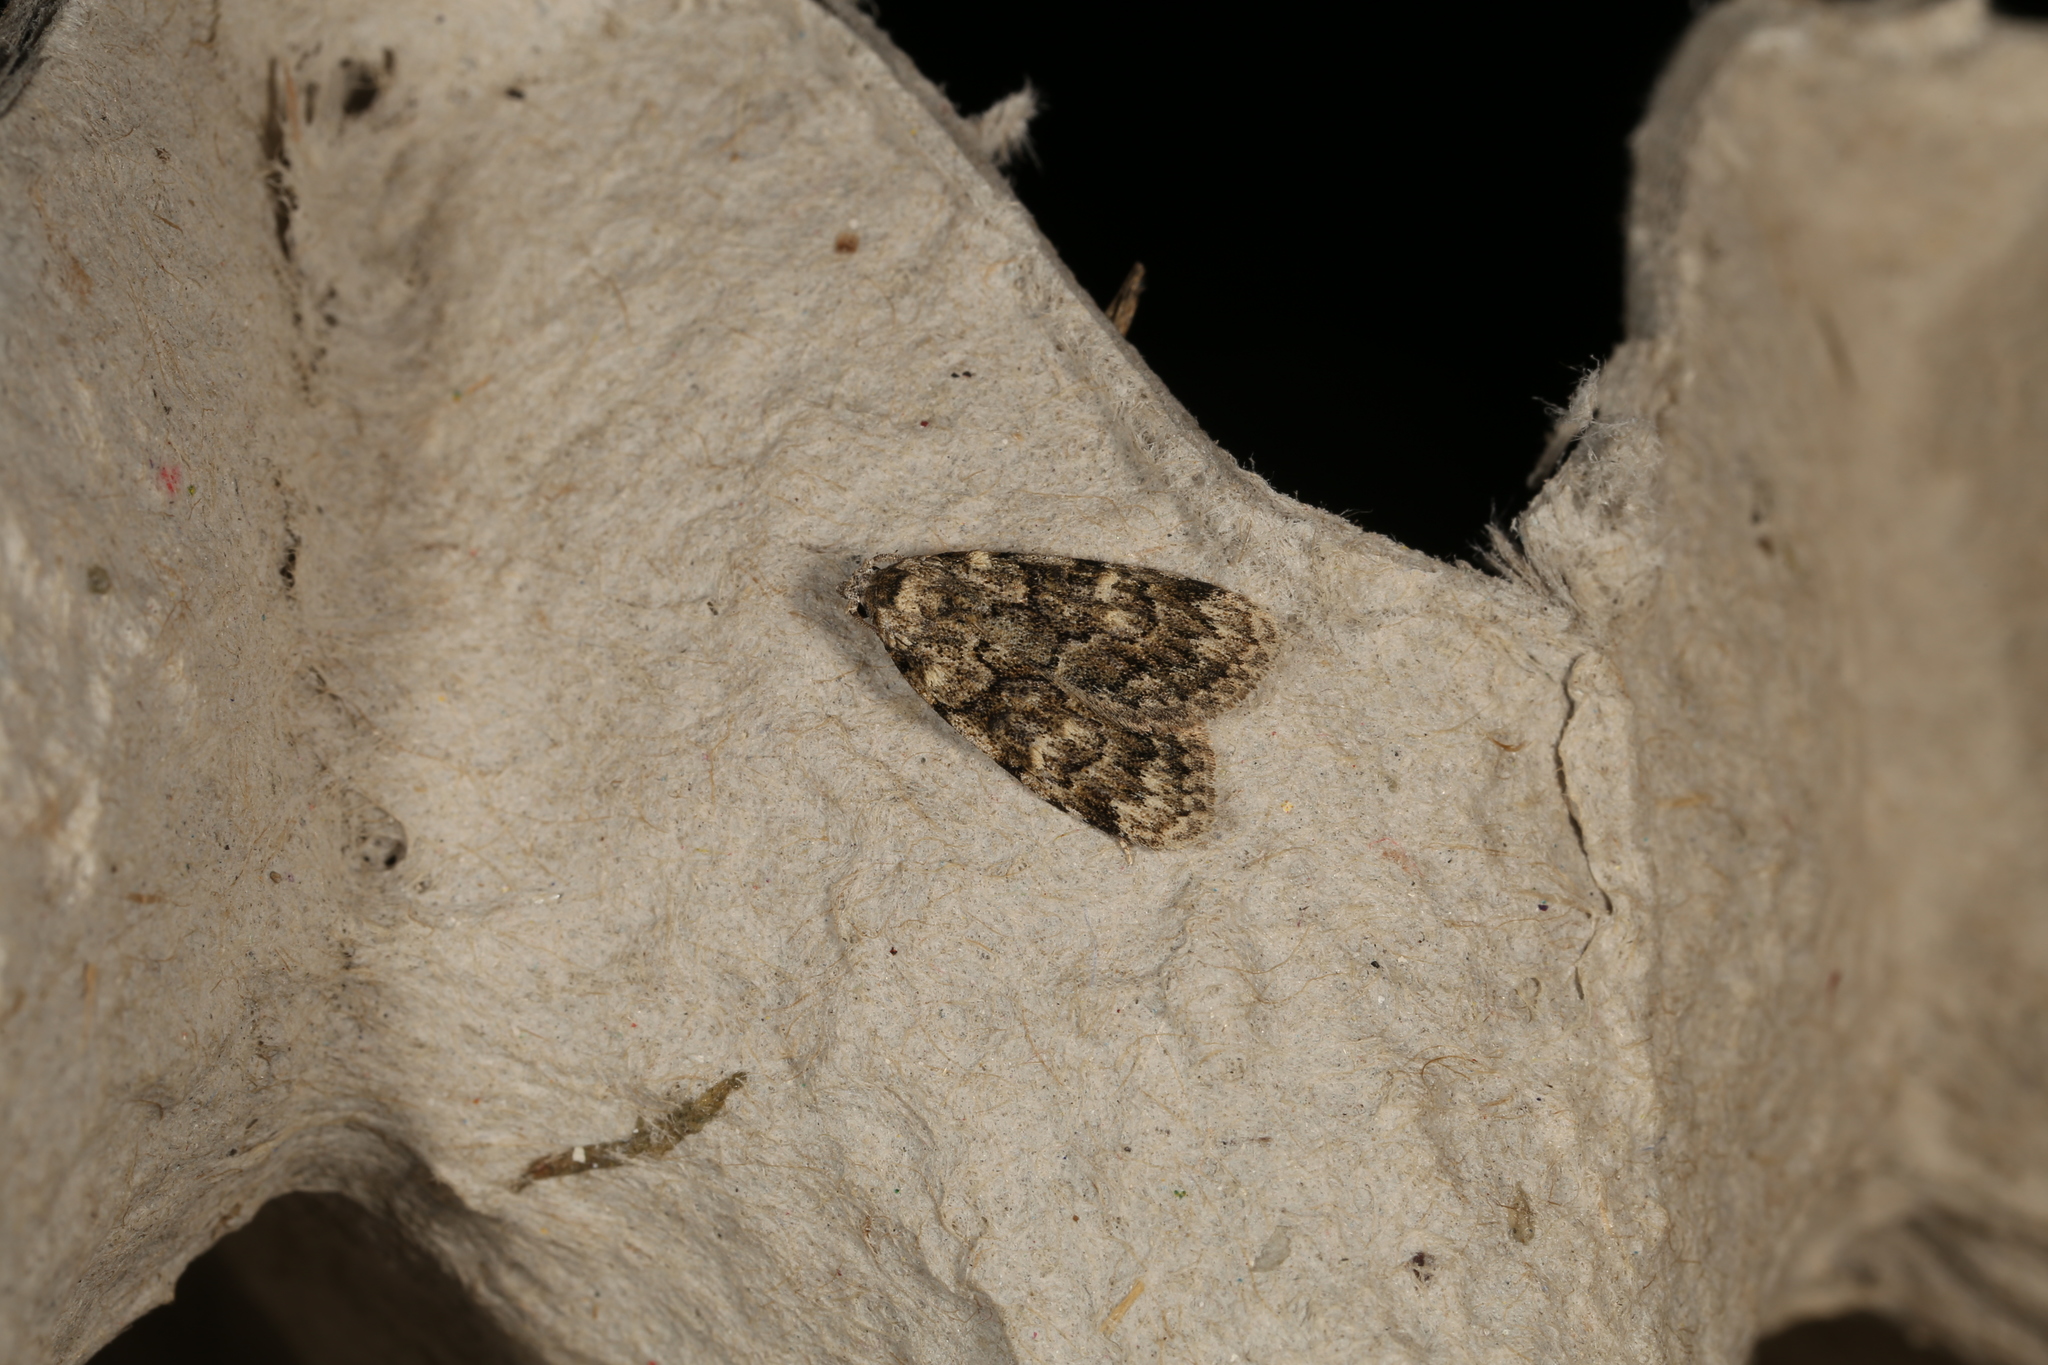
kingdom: Animalia
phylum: Arthropoda
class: Insecta
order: Lepidoptera
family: Nolidae
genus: Nola
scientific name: Nola tetralopha
